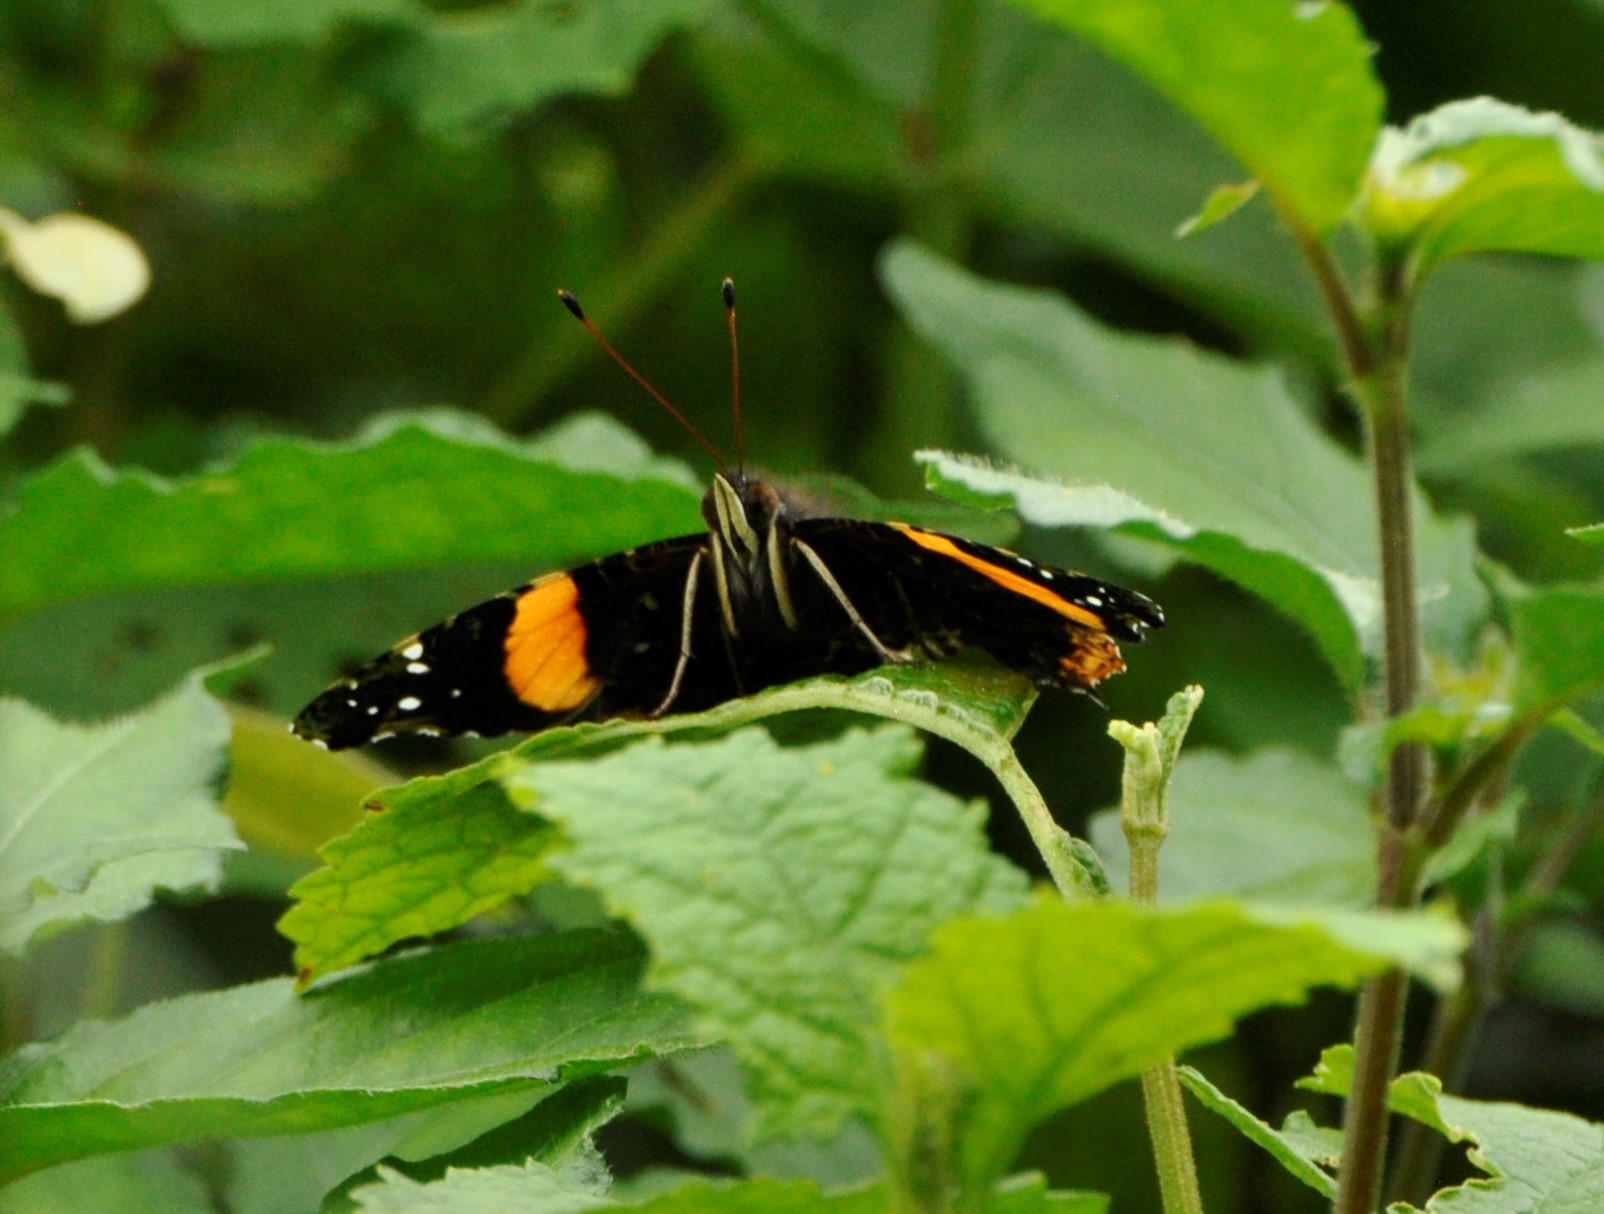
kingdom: Animalia
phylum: Arthropoda
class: Insecta
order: Lepidoptera
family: Nymphalidae
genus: Antanartia
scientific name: Antanartia dimorphica
